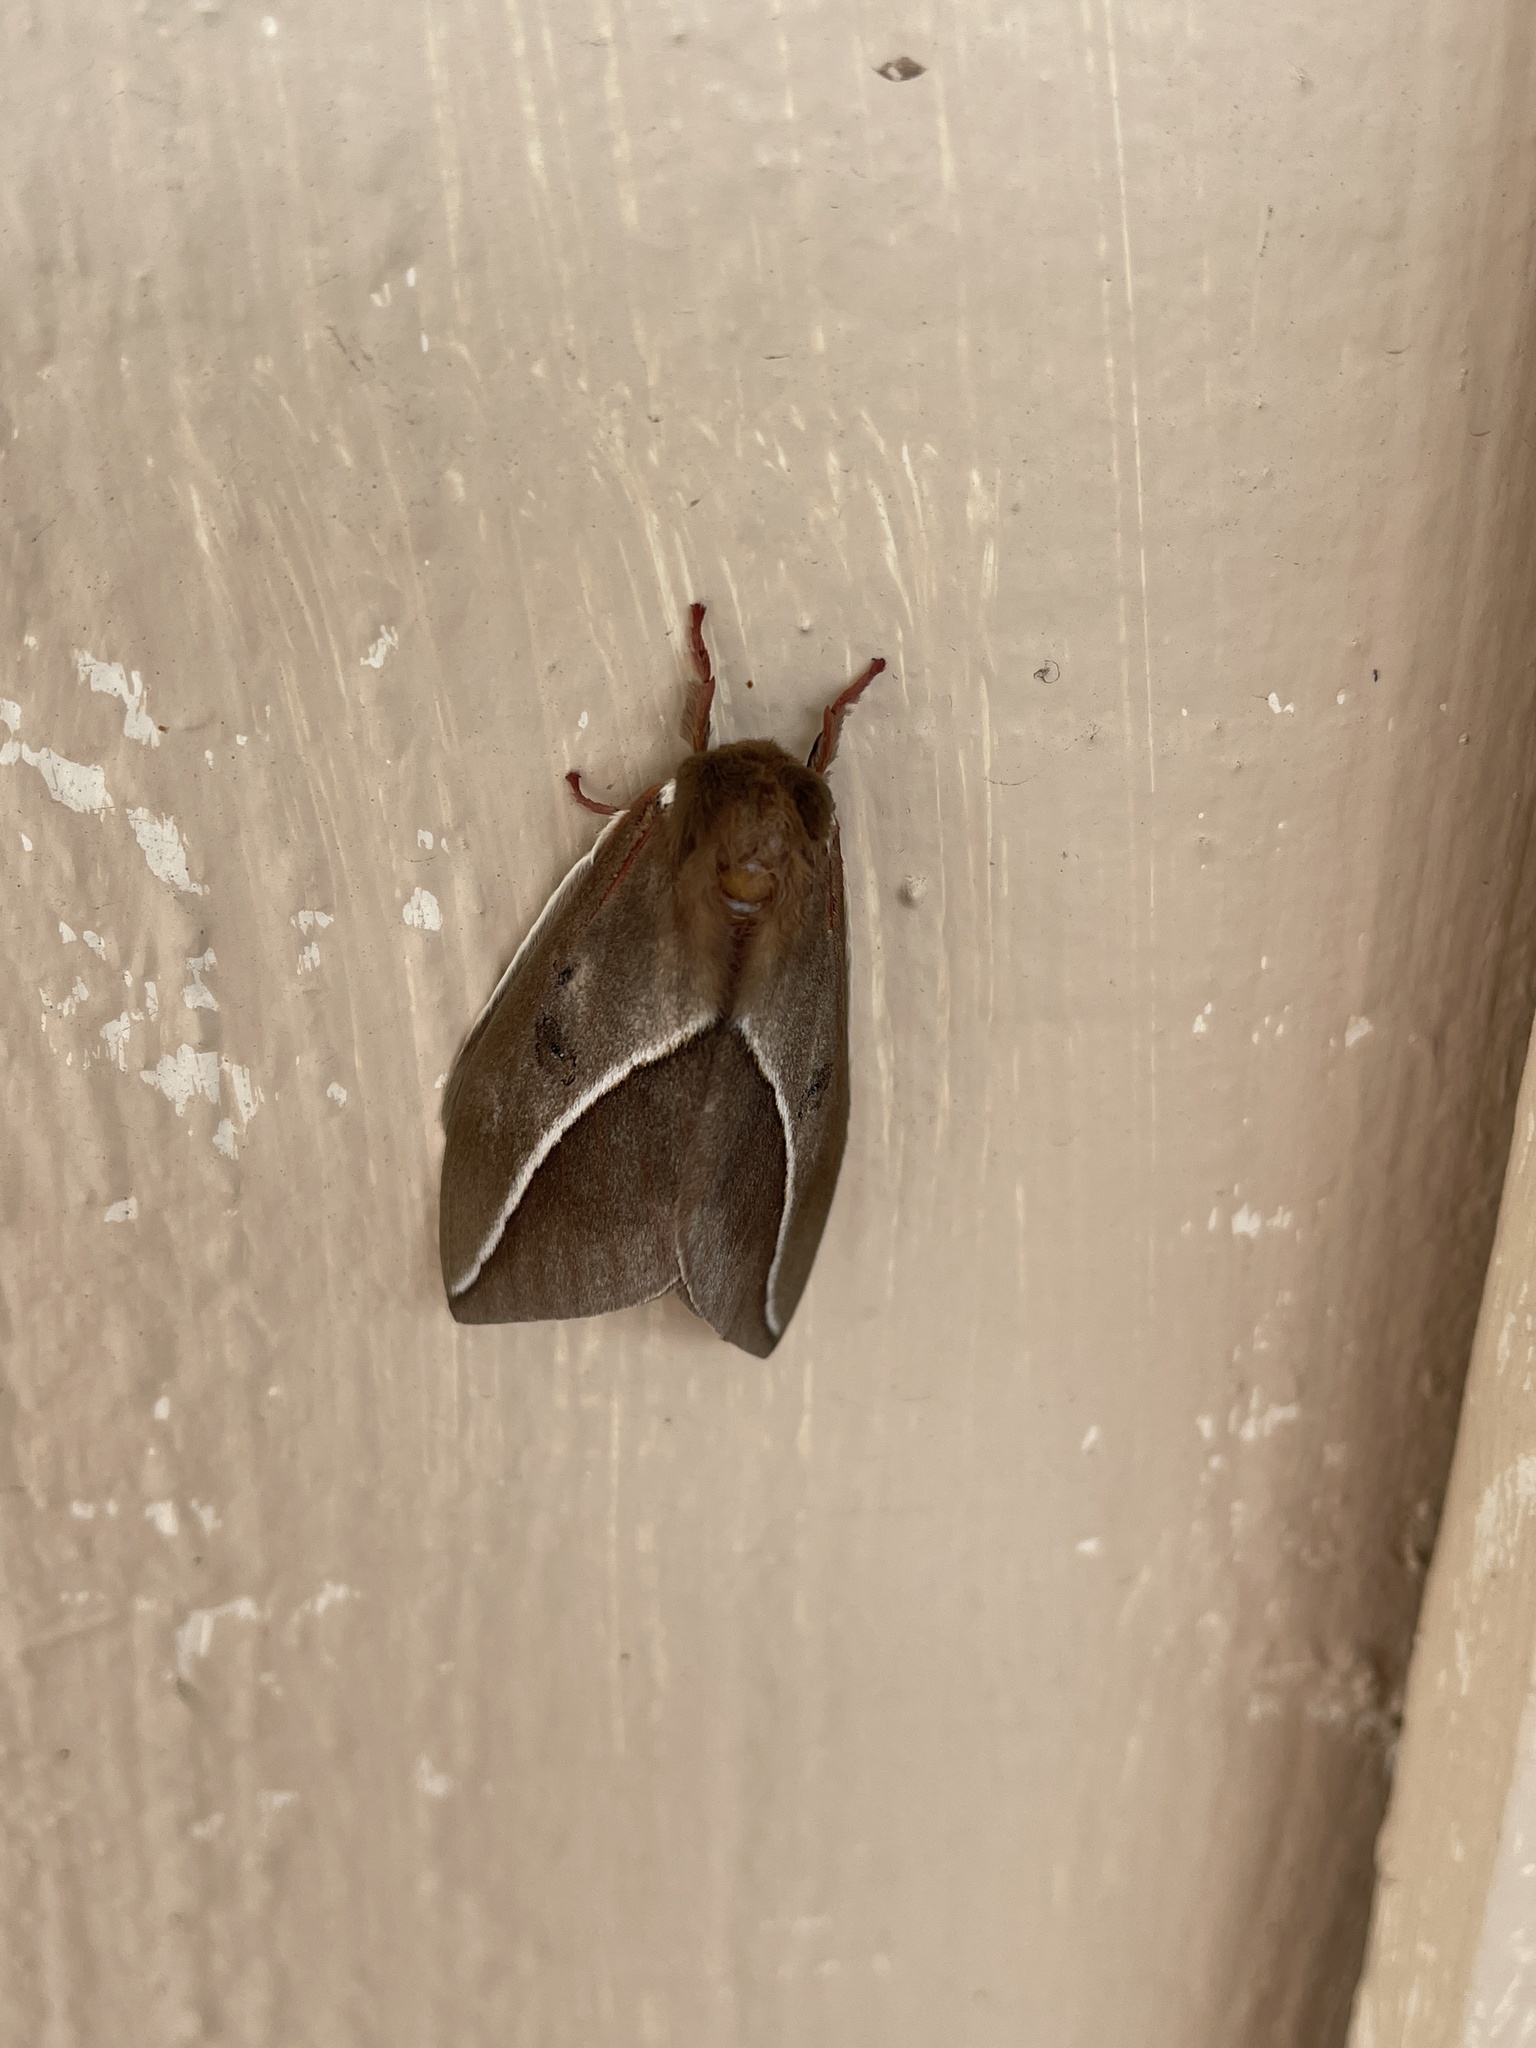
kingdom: Animalia
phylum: Arthropoda
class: Insecta
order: Lepidoptera
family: Saturniidae
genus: Automeris
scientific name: Automeris zephyria
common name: Zephyr eyed silkmoth
